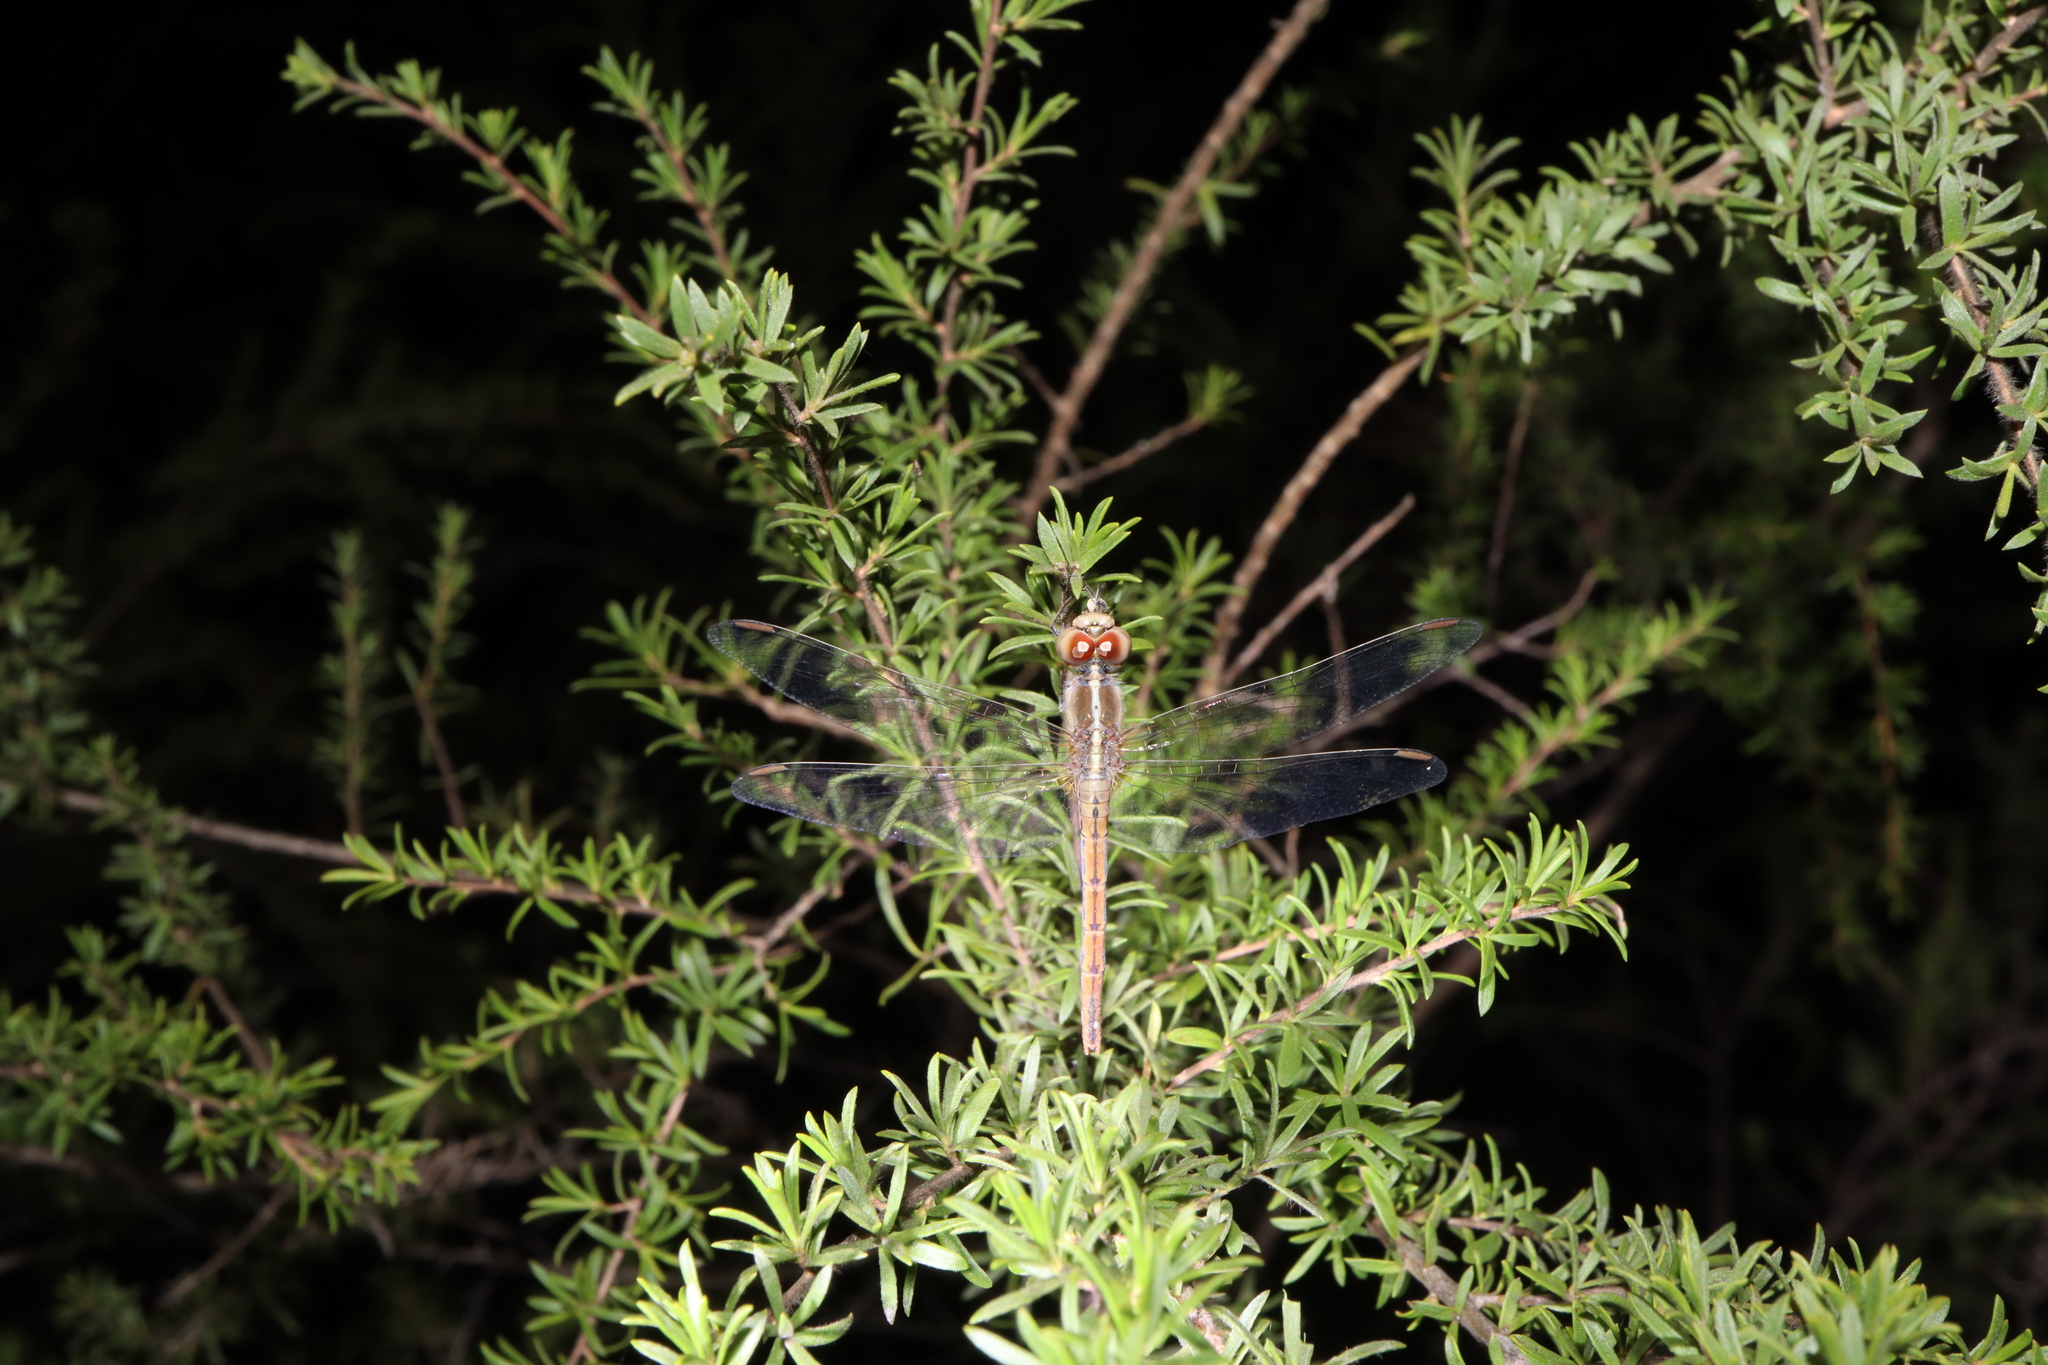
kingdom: Animalia
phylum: Arthropoda
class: Insecta
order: Odonata
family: Libellulidae
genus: Diplacodes
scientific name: Diplacodes bipunctata
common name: Red percher dragonfly
